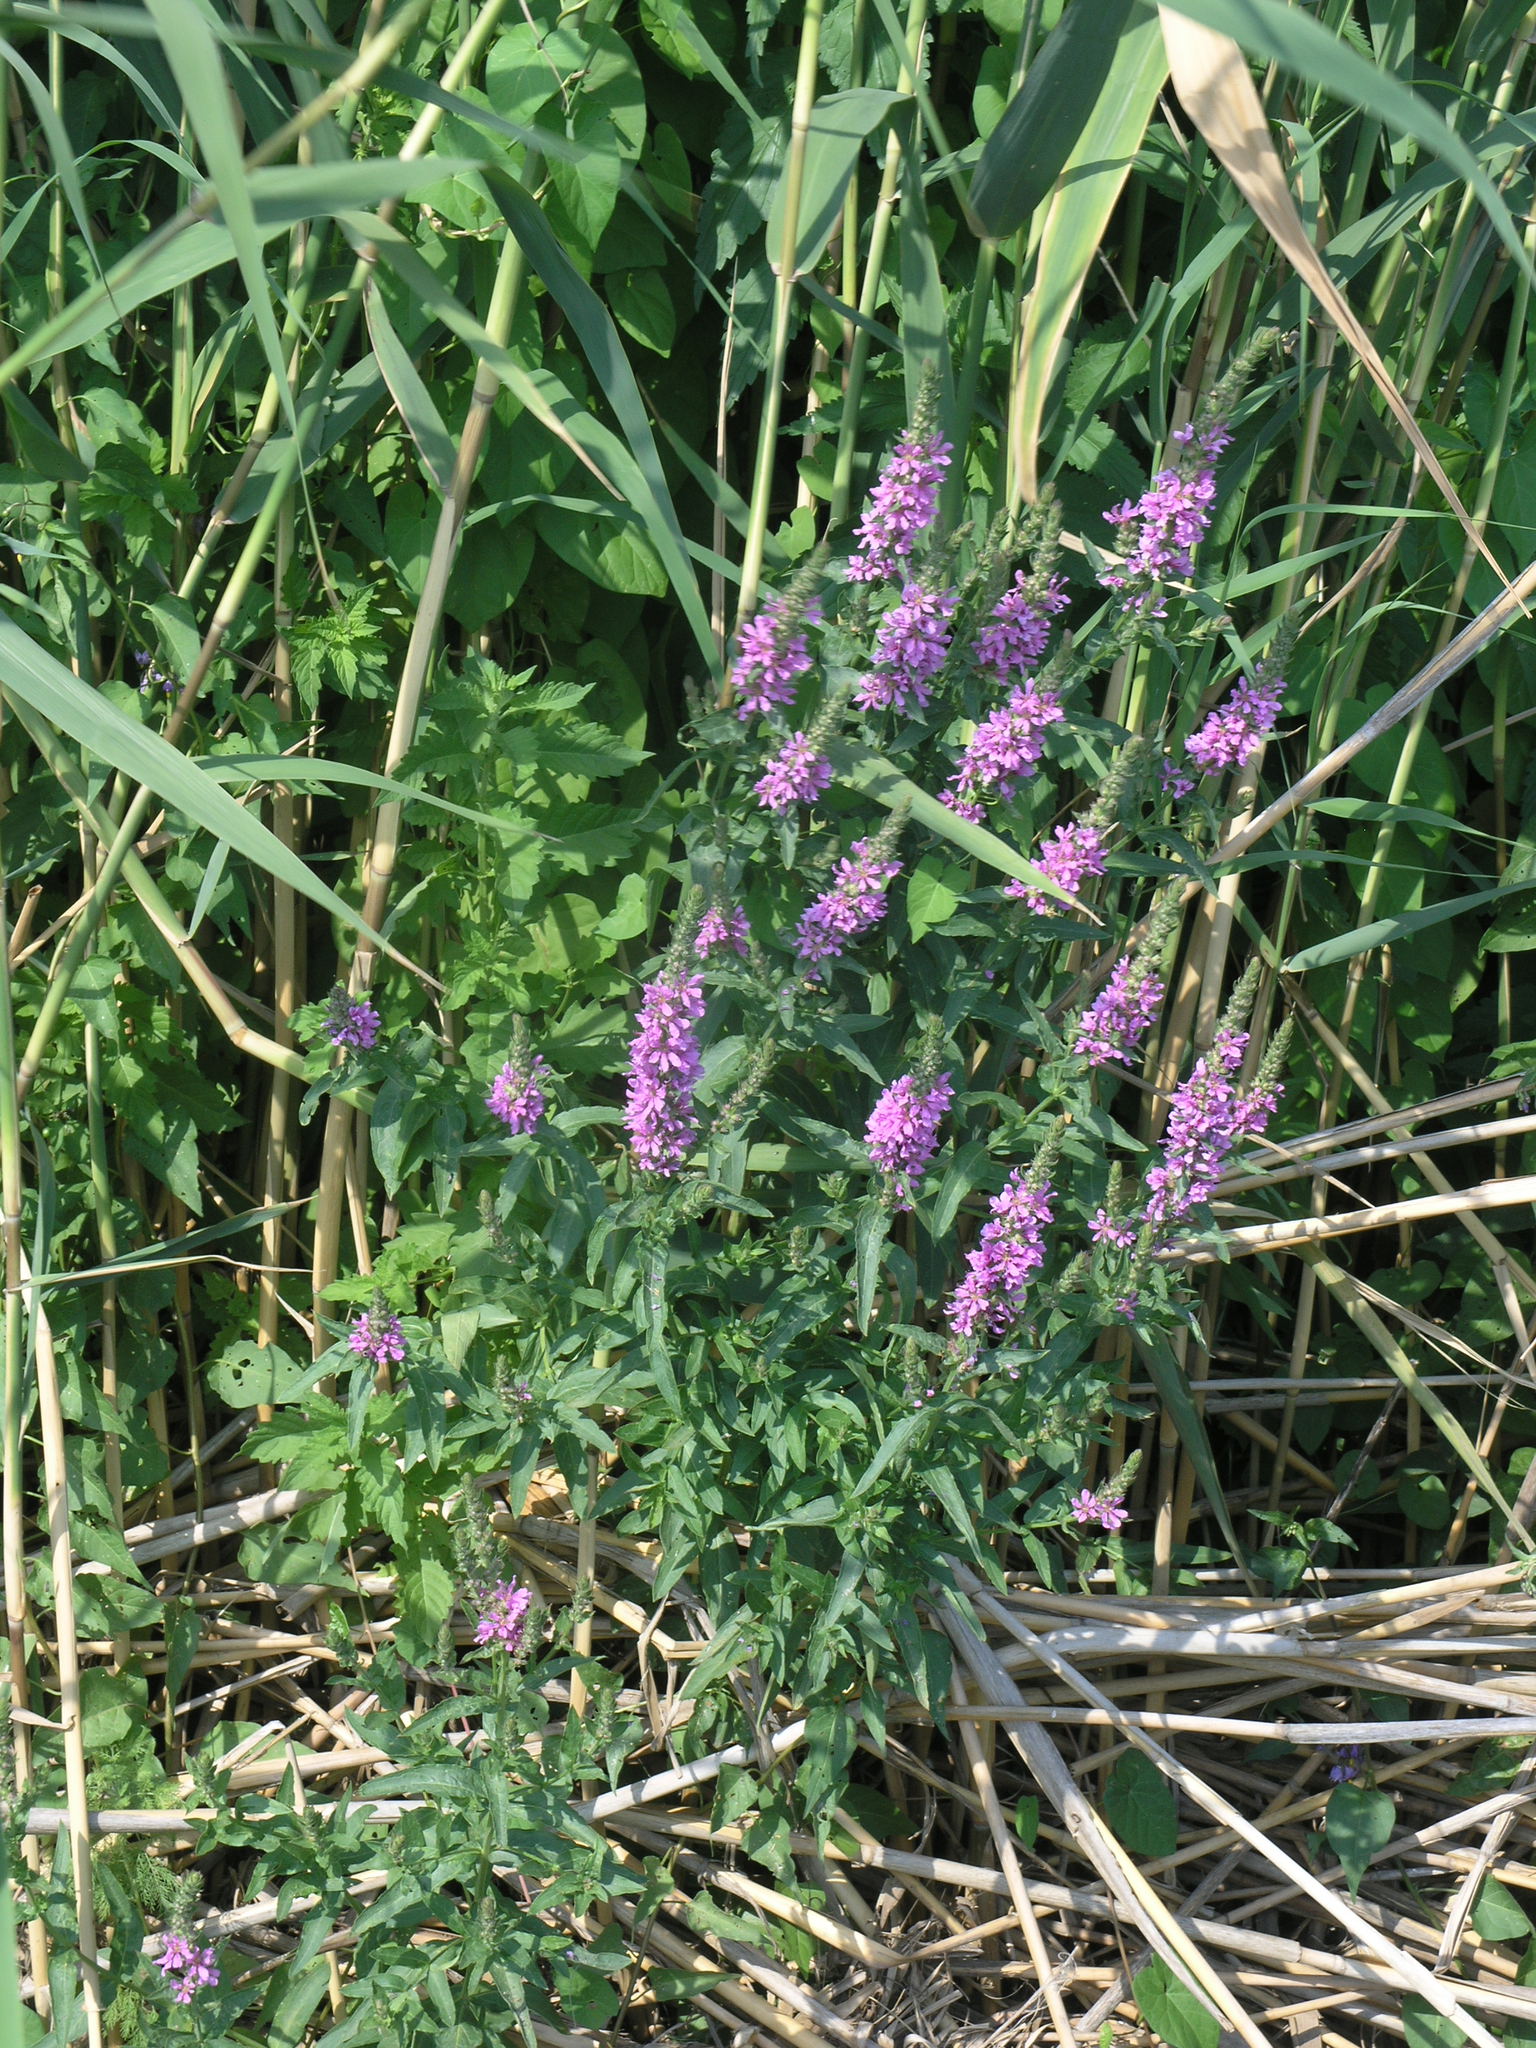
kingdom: Plantae
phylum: Tracheophyta
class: Magnoliopsida
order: Myrtales
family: Lythraceae
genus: Lythrum
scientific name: Lythrum salicaria
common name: Purple loosestrife
